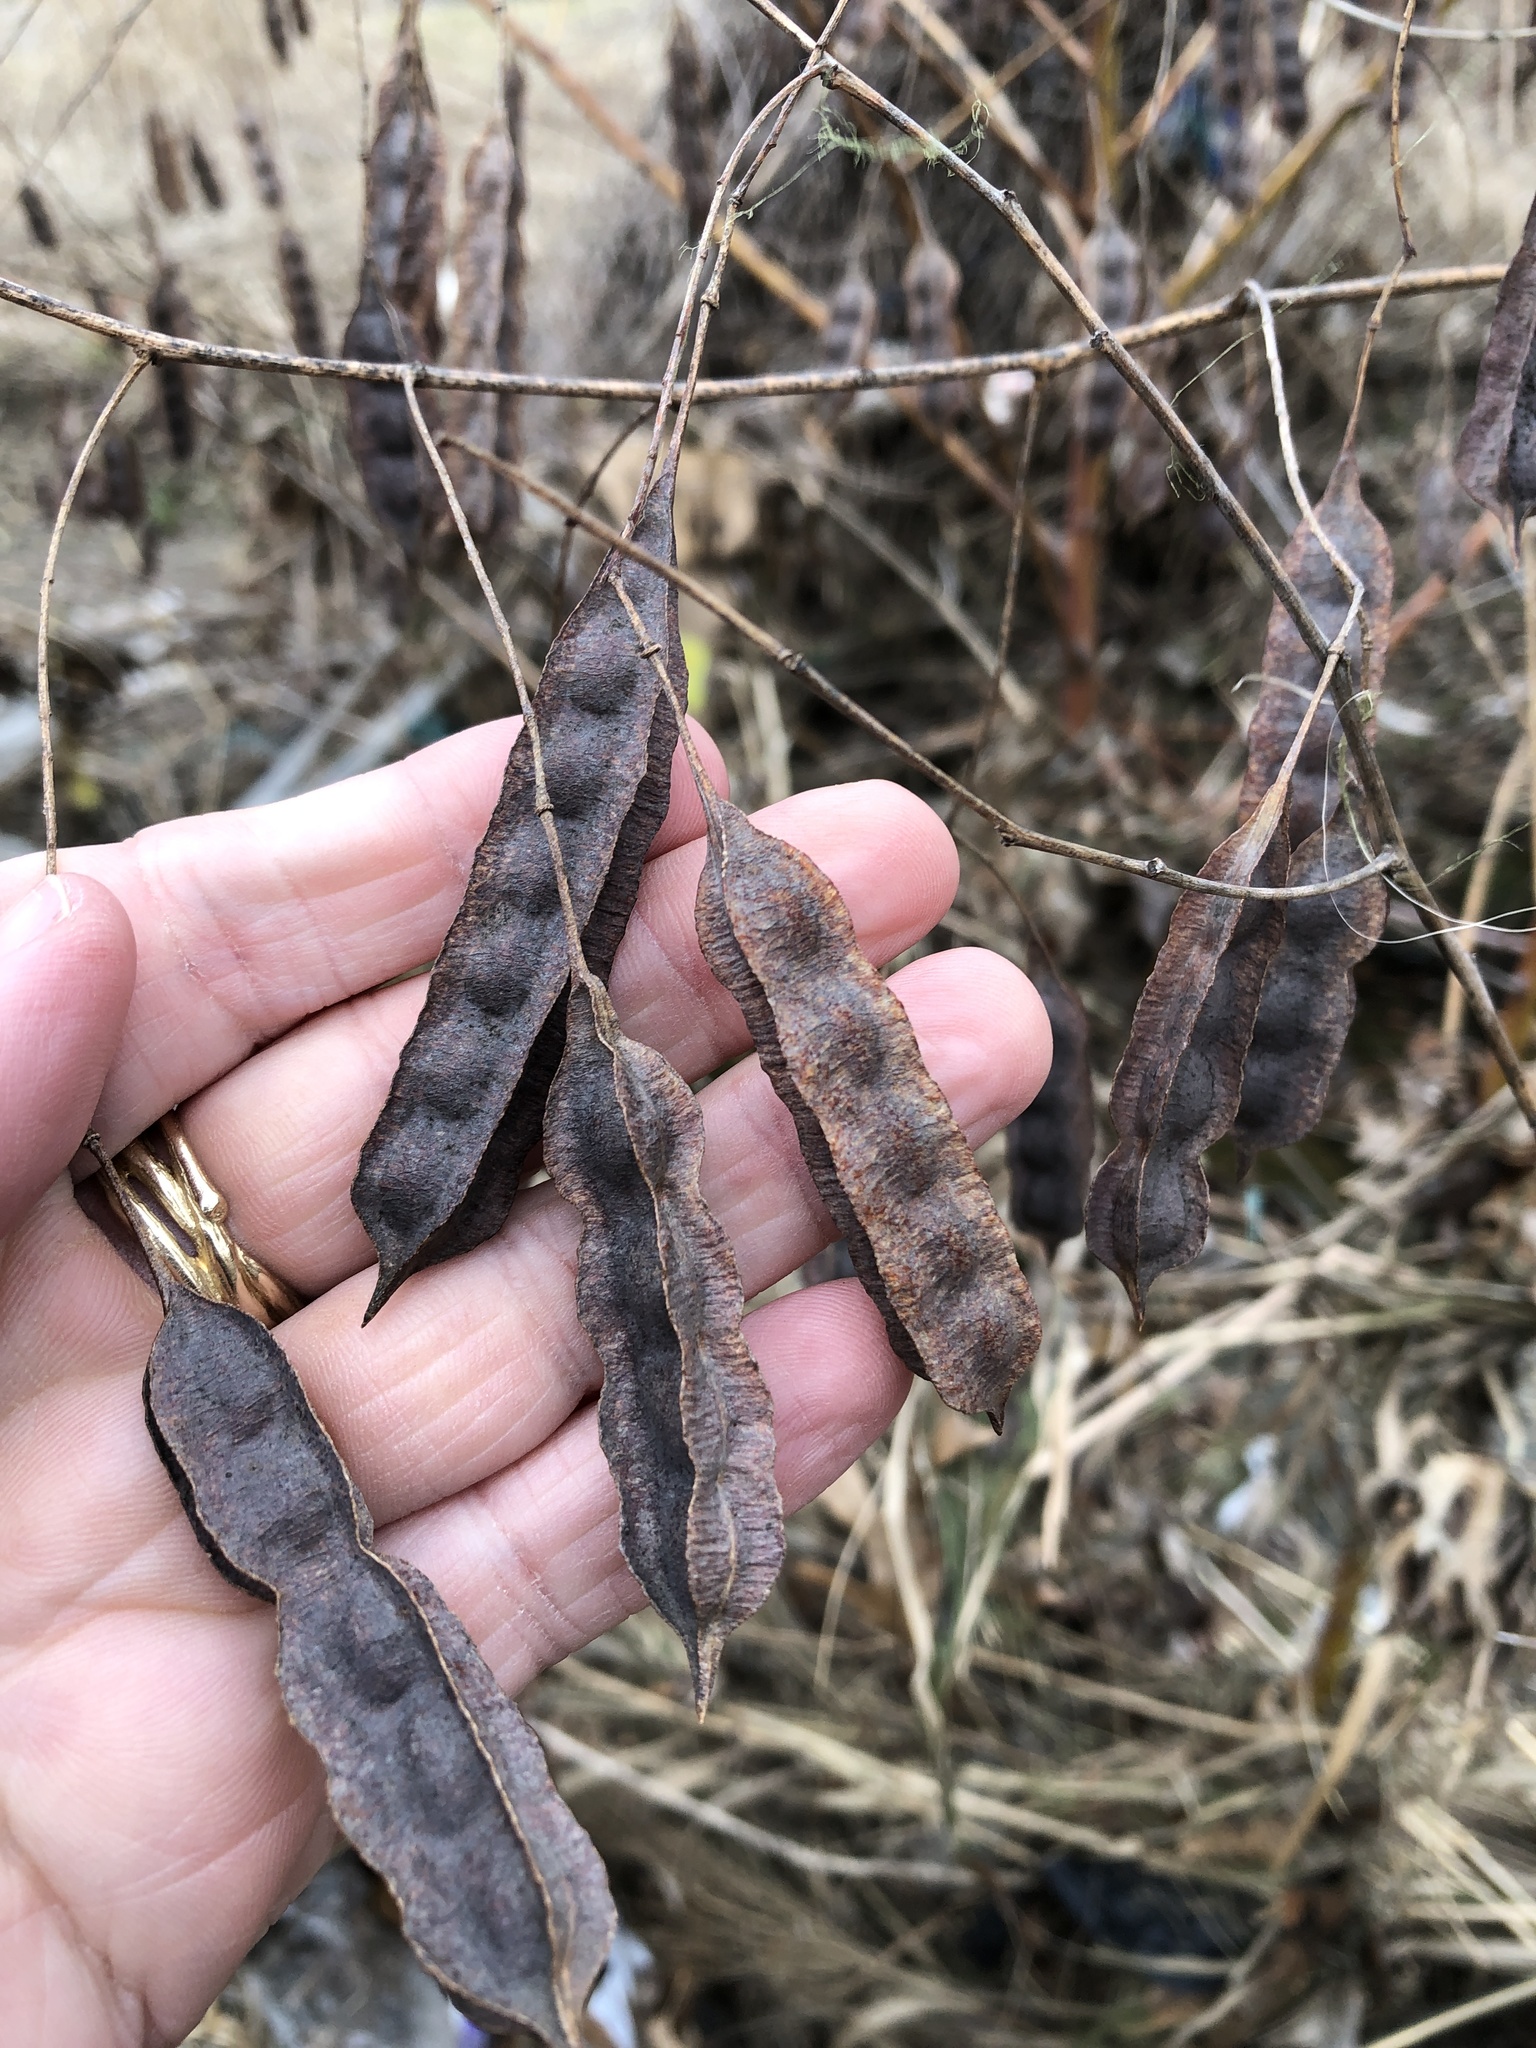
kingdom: Plantae
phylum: Tracheophyta
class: Magnoliopsida
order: Fabales
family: Fabaceae
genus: Sesbania
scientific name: Sesbania drummondii
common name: Poison-bean
